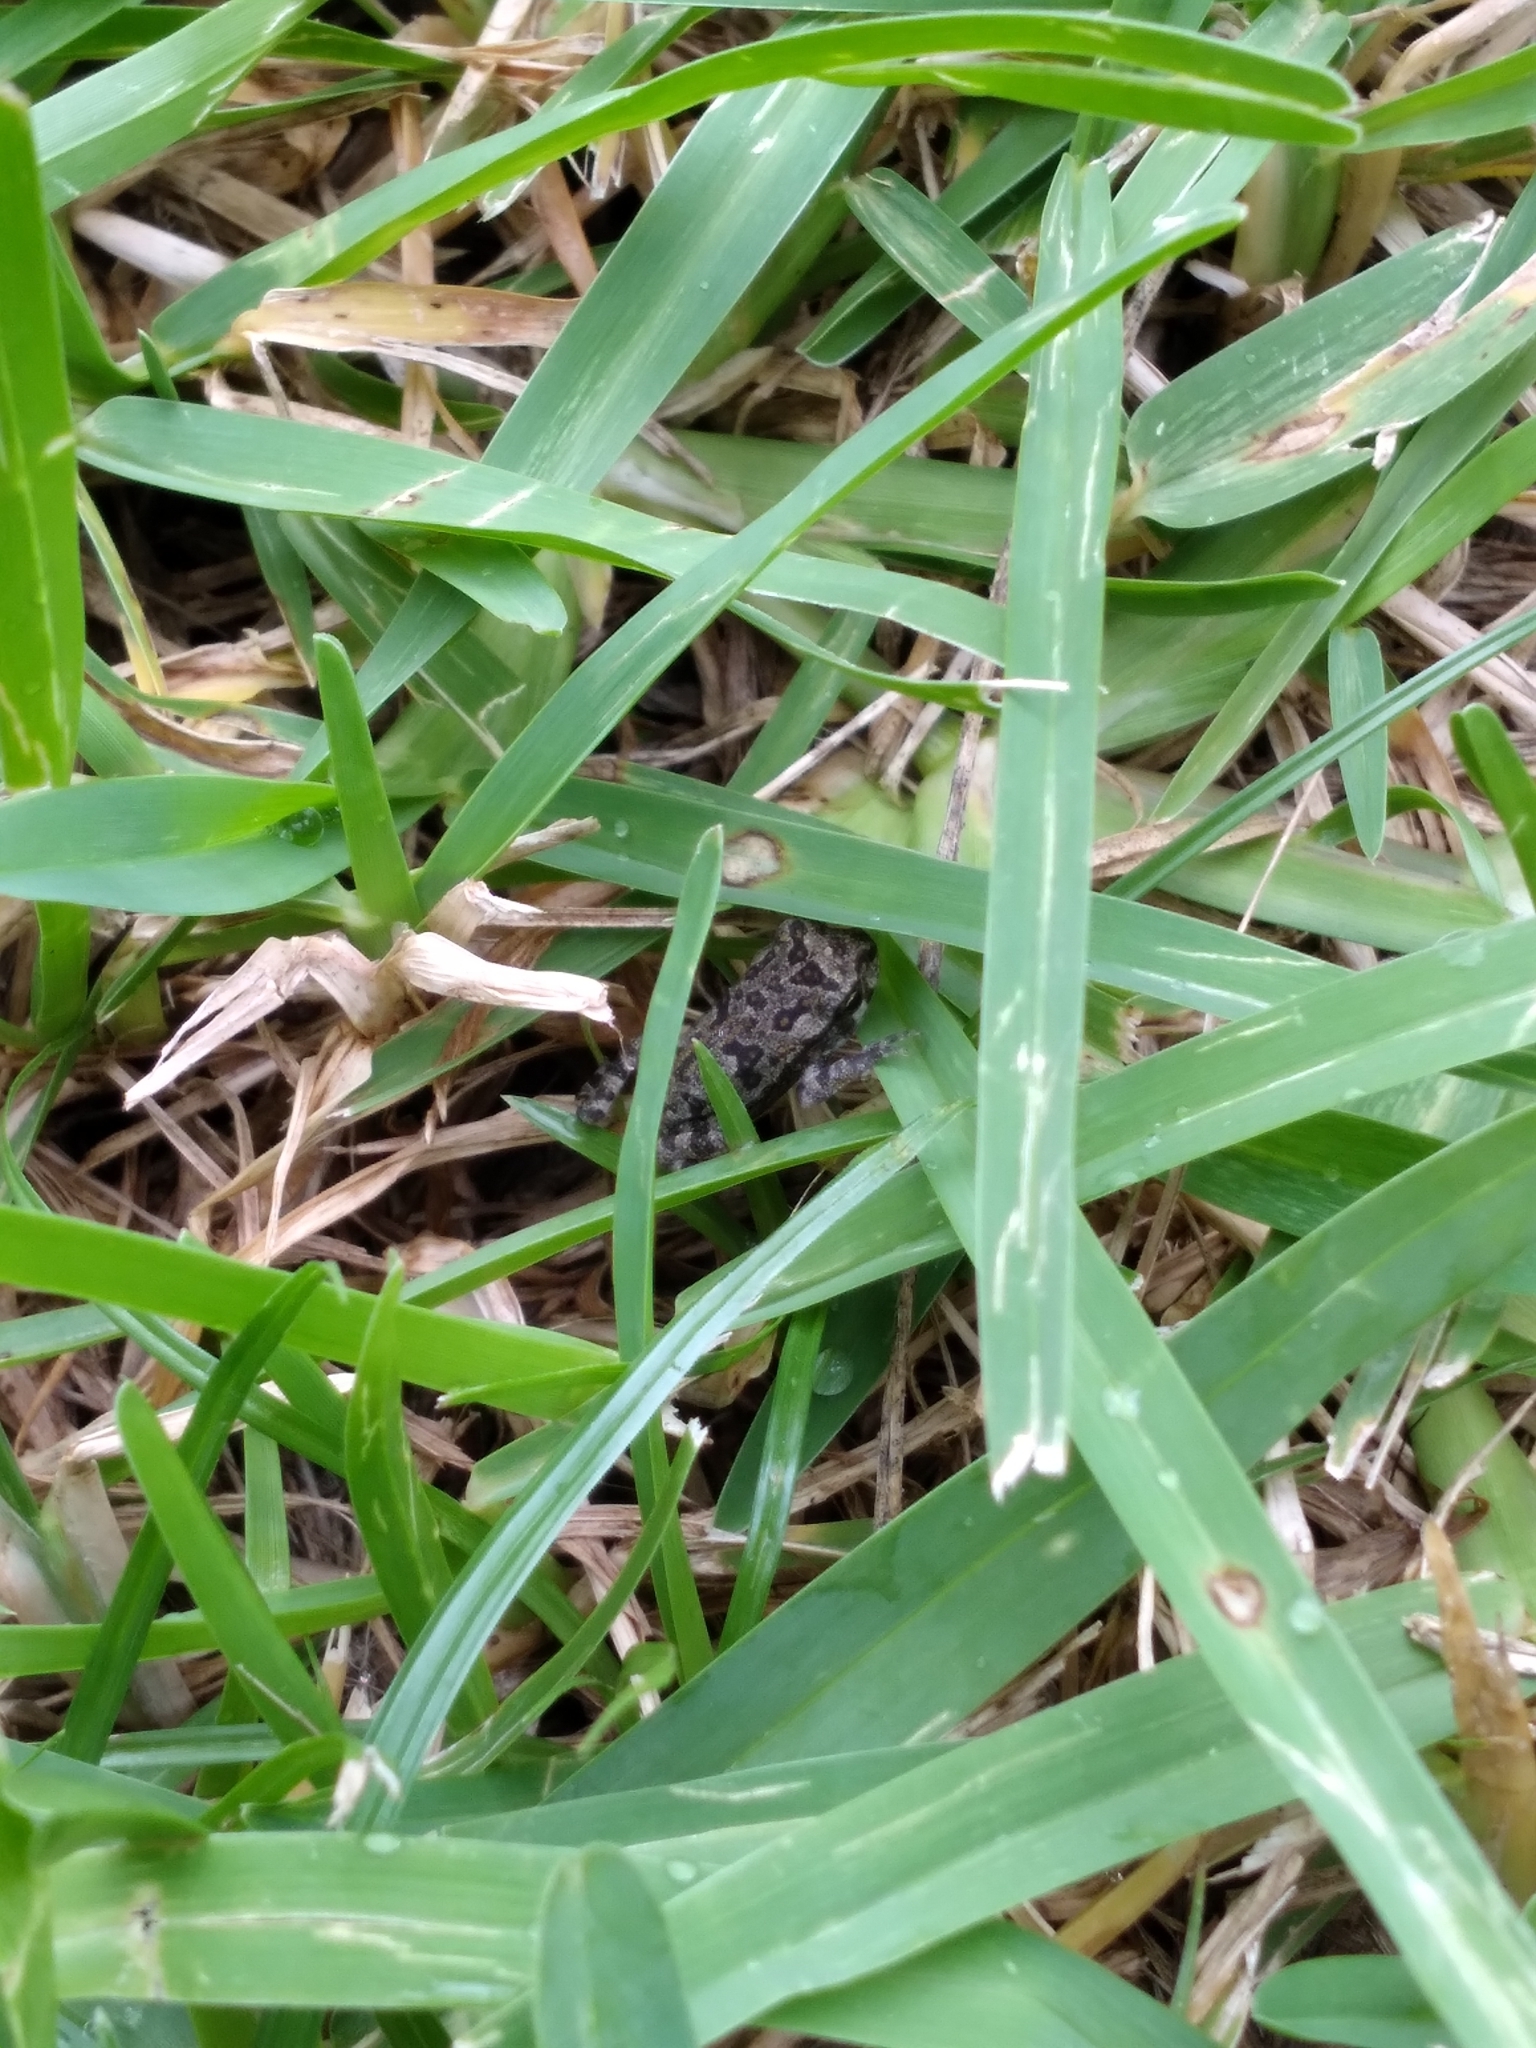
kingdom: Animalia
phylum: Chordata
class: Amphibia
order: Anura
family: Bufonidae
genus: Rhinella
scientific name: Rhinella marina
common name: Cane toad
